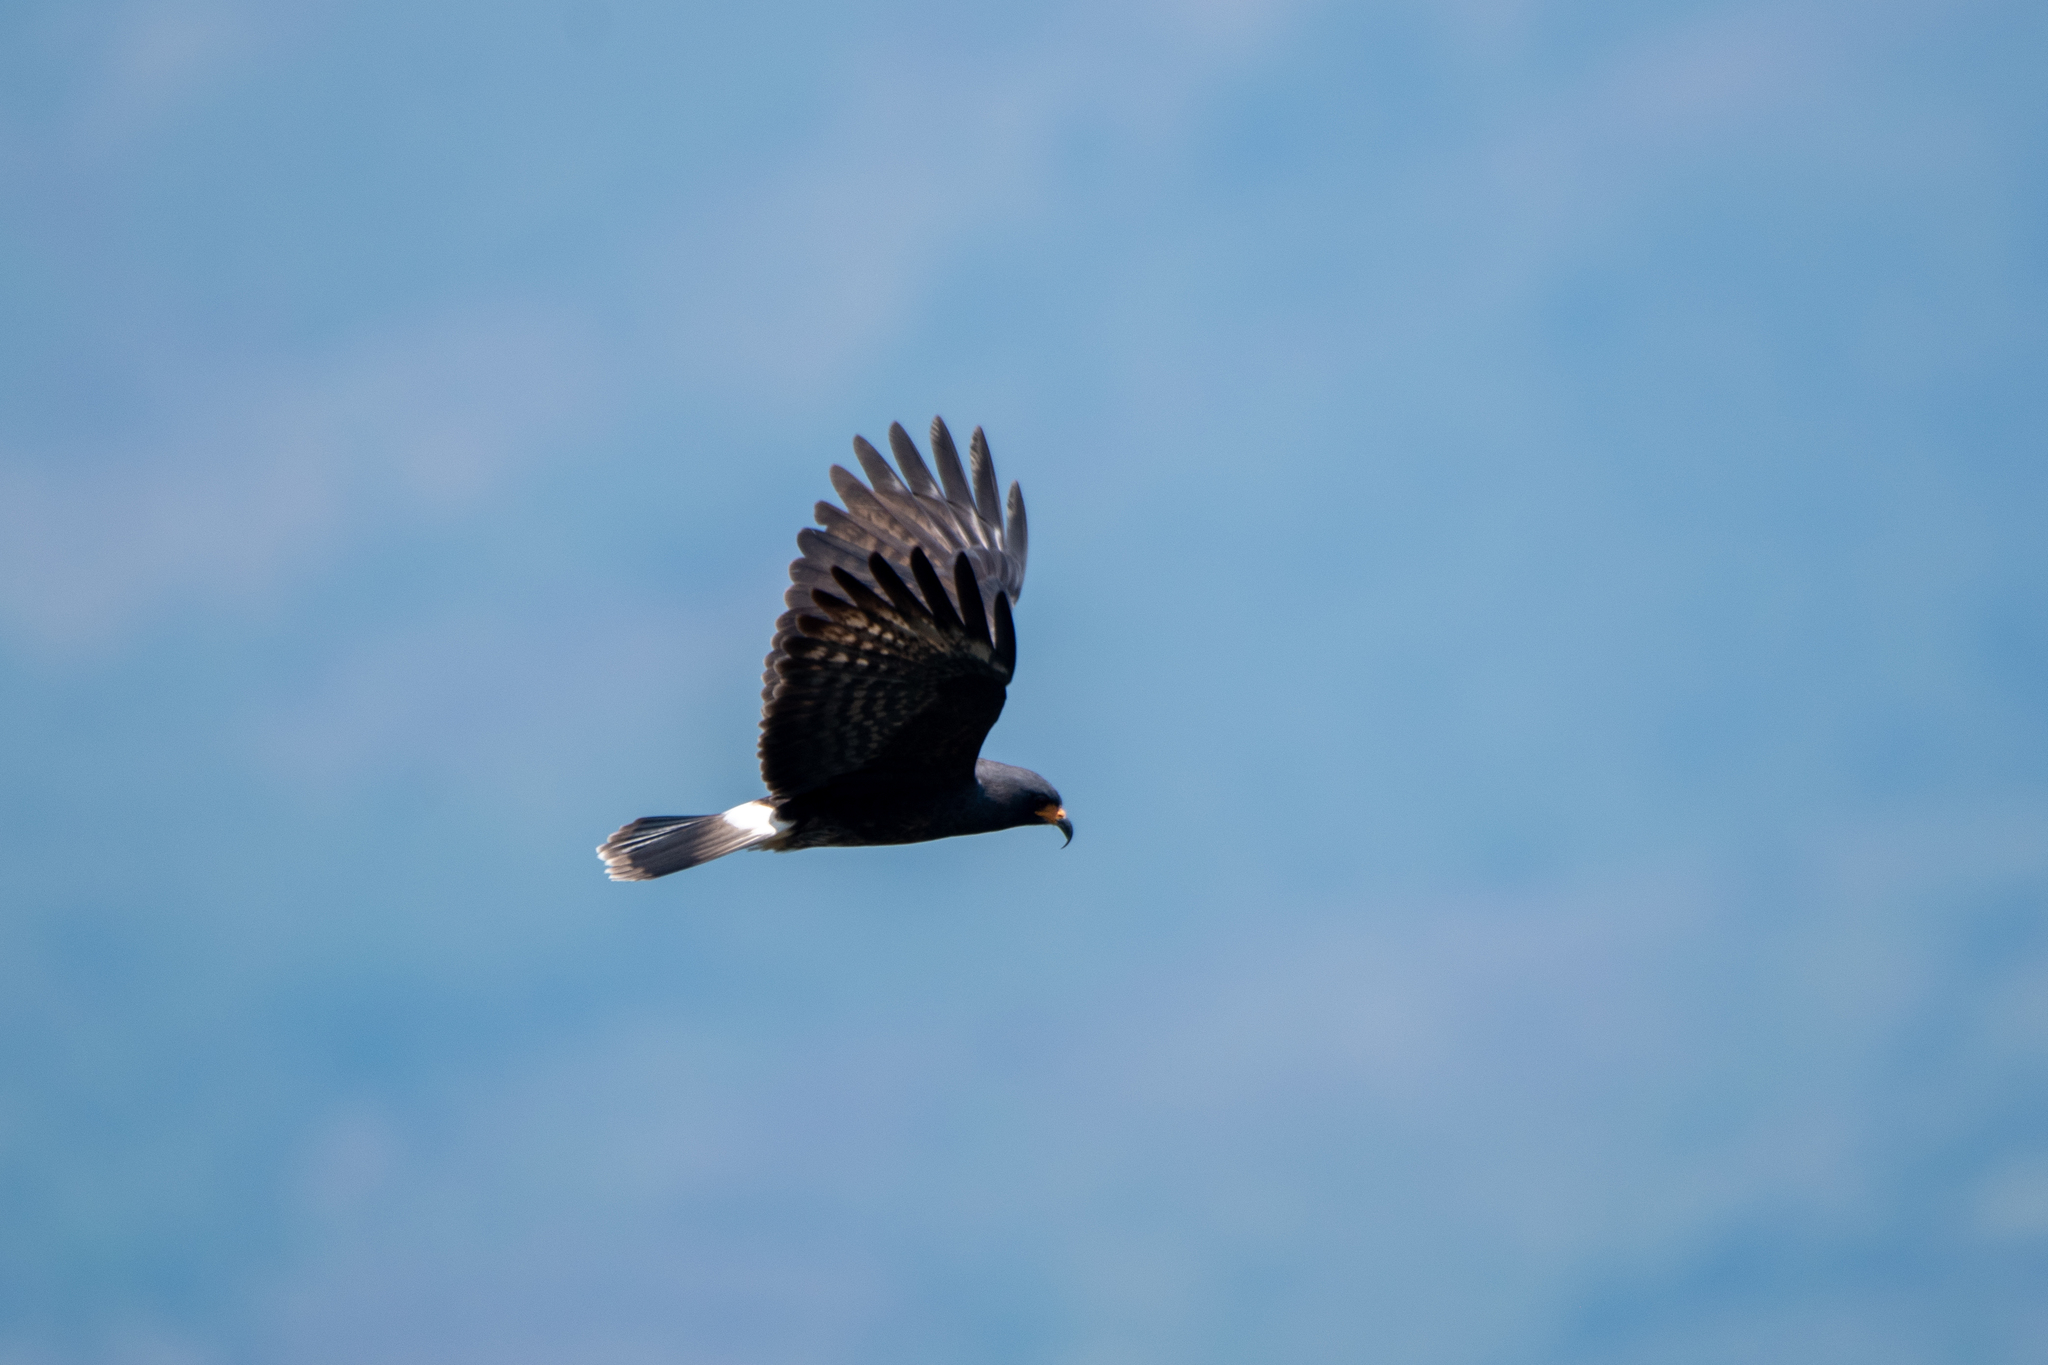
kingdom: Animalia
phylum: Chordata
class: Aves
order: Accipitriformes
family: Accipitridae
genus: Rostrhamus
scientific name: Rostrhamus sociabilis
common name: Snail kite
